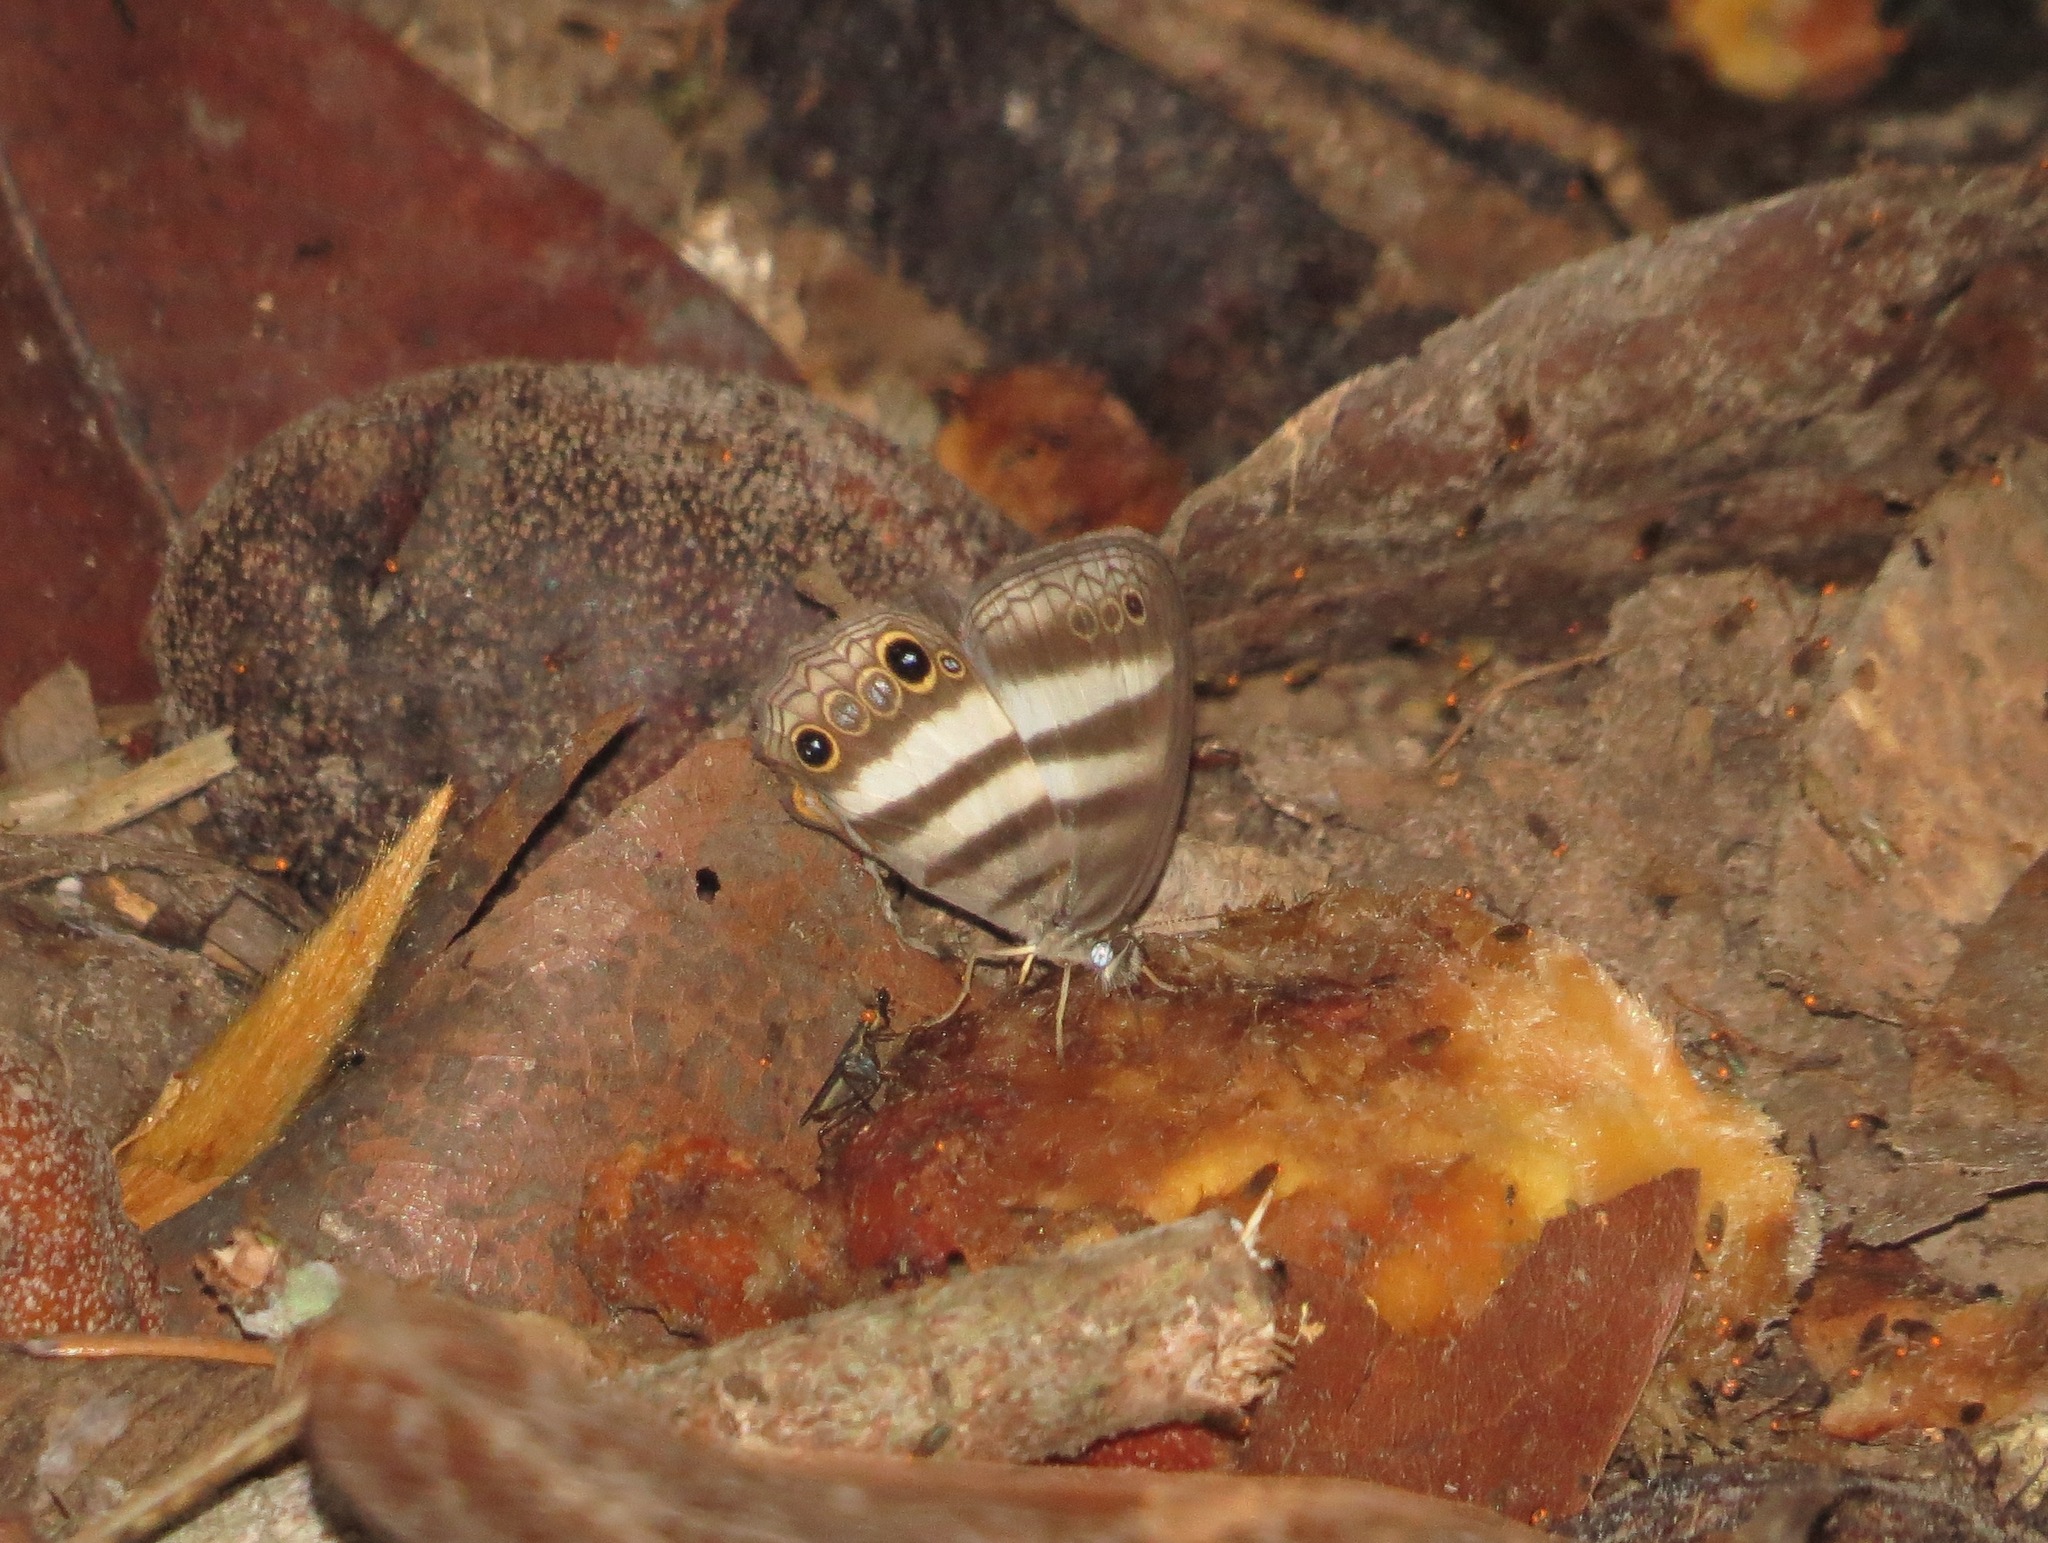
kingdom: Animalia
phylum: Arthropoda
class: Insecta
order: Lepidoptera
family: Nymphalidae
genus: Pareuptychia
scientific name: Pareuptychia hesione
